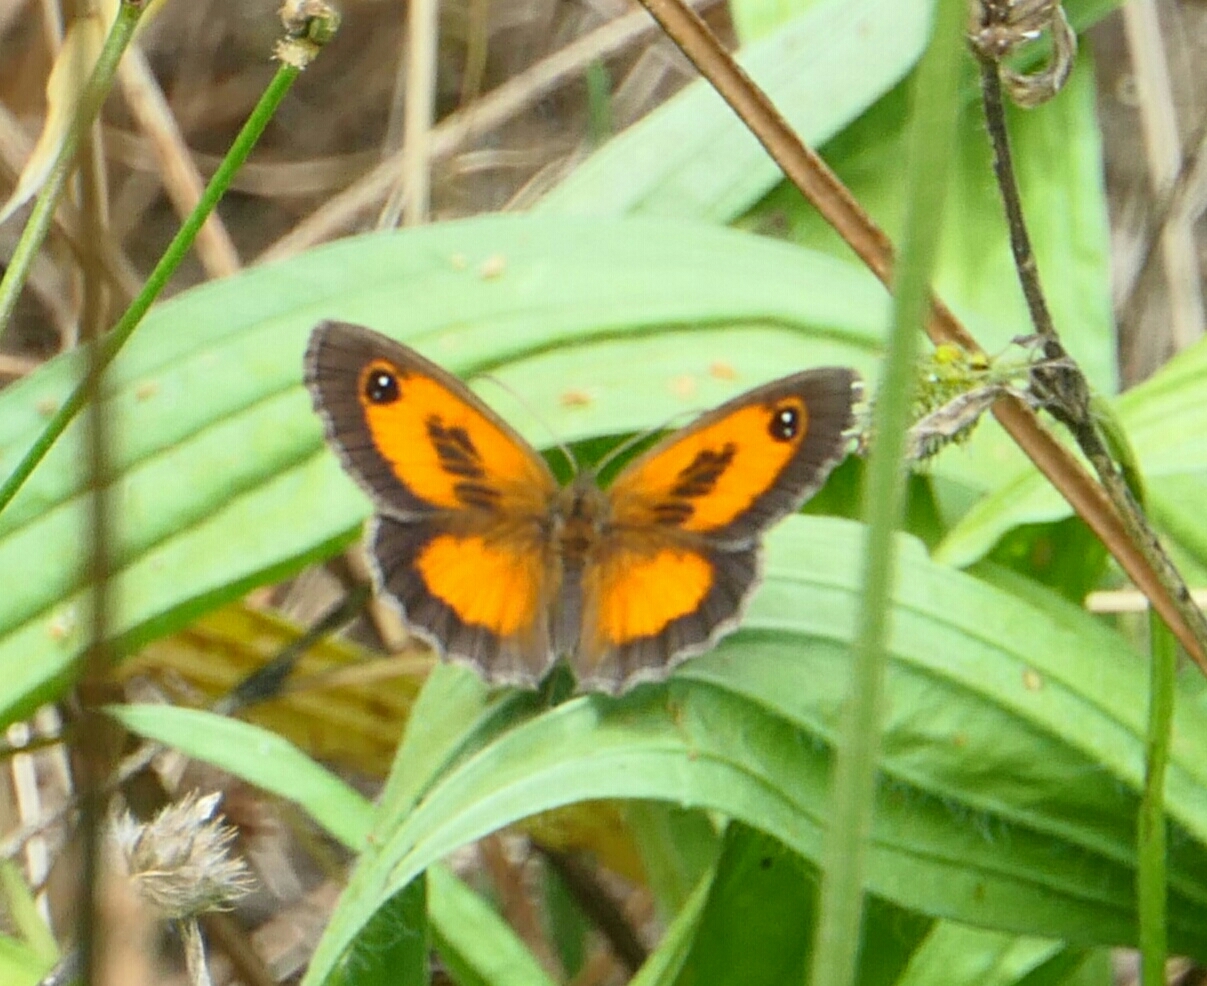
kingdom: Animalia
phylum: Arthropoda
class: Insecta
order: Lepidoptera
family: Nymphalidae
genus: Pyronia
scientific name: Pyronia cecilia
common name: Southern gatekeeper
